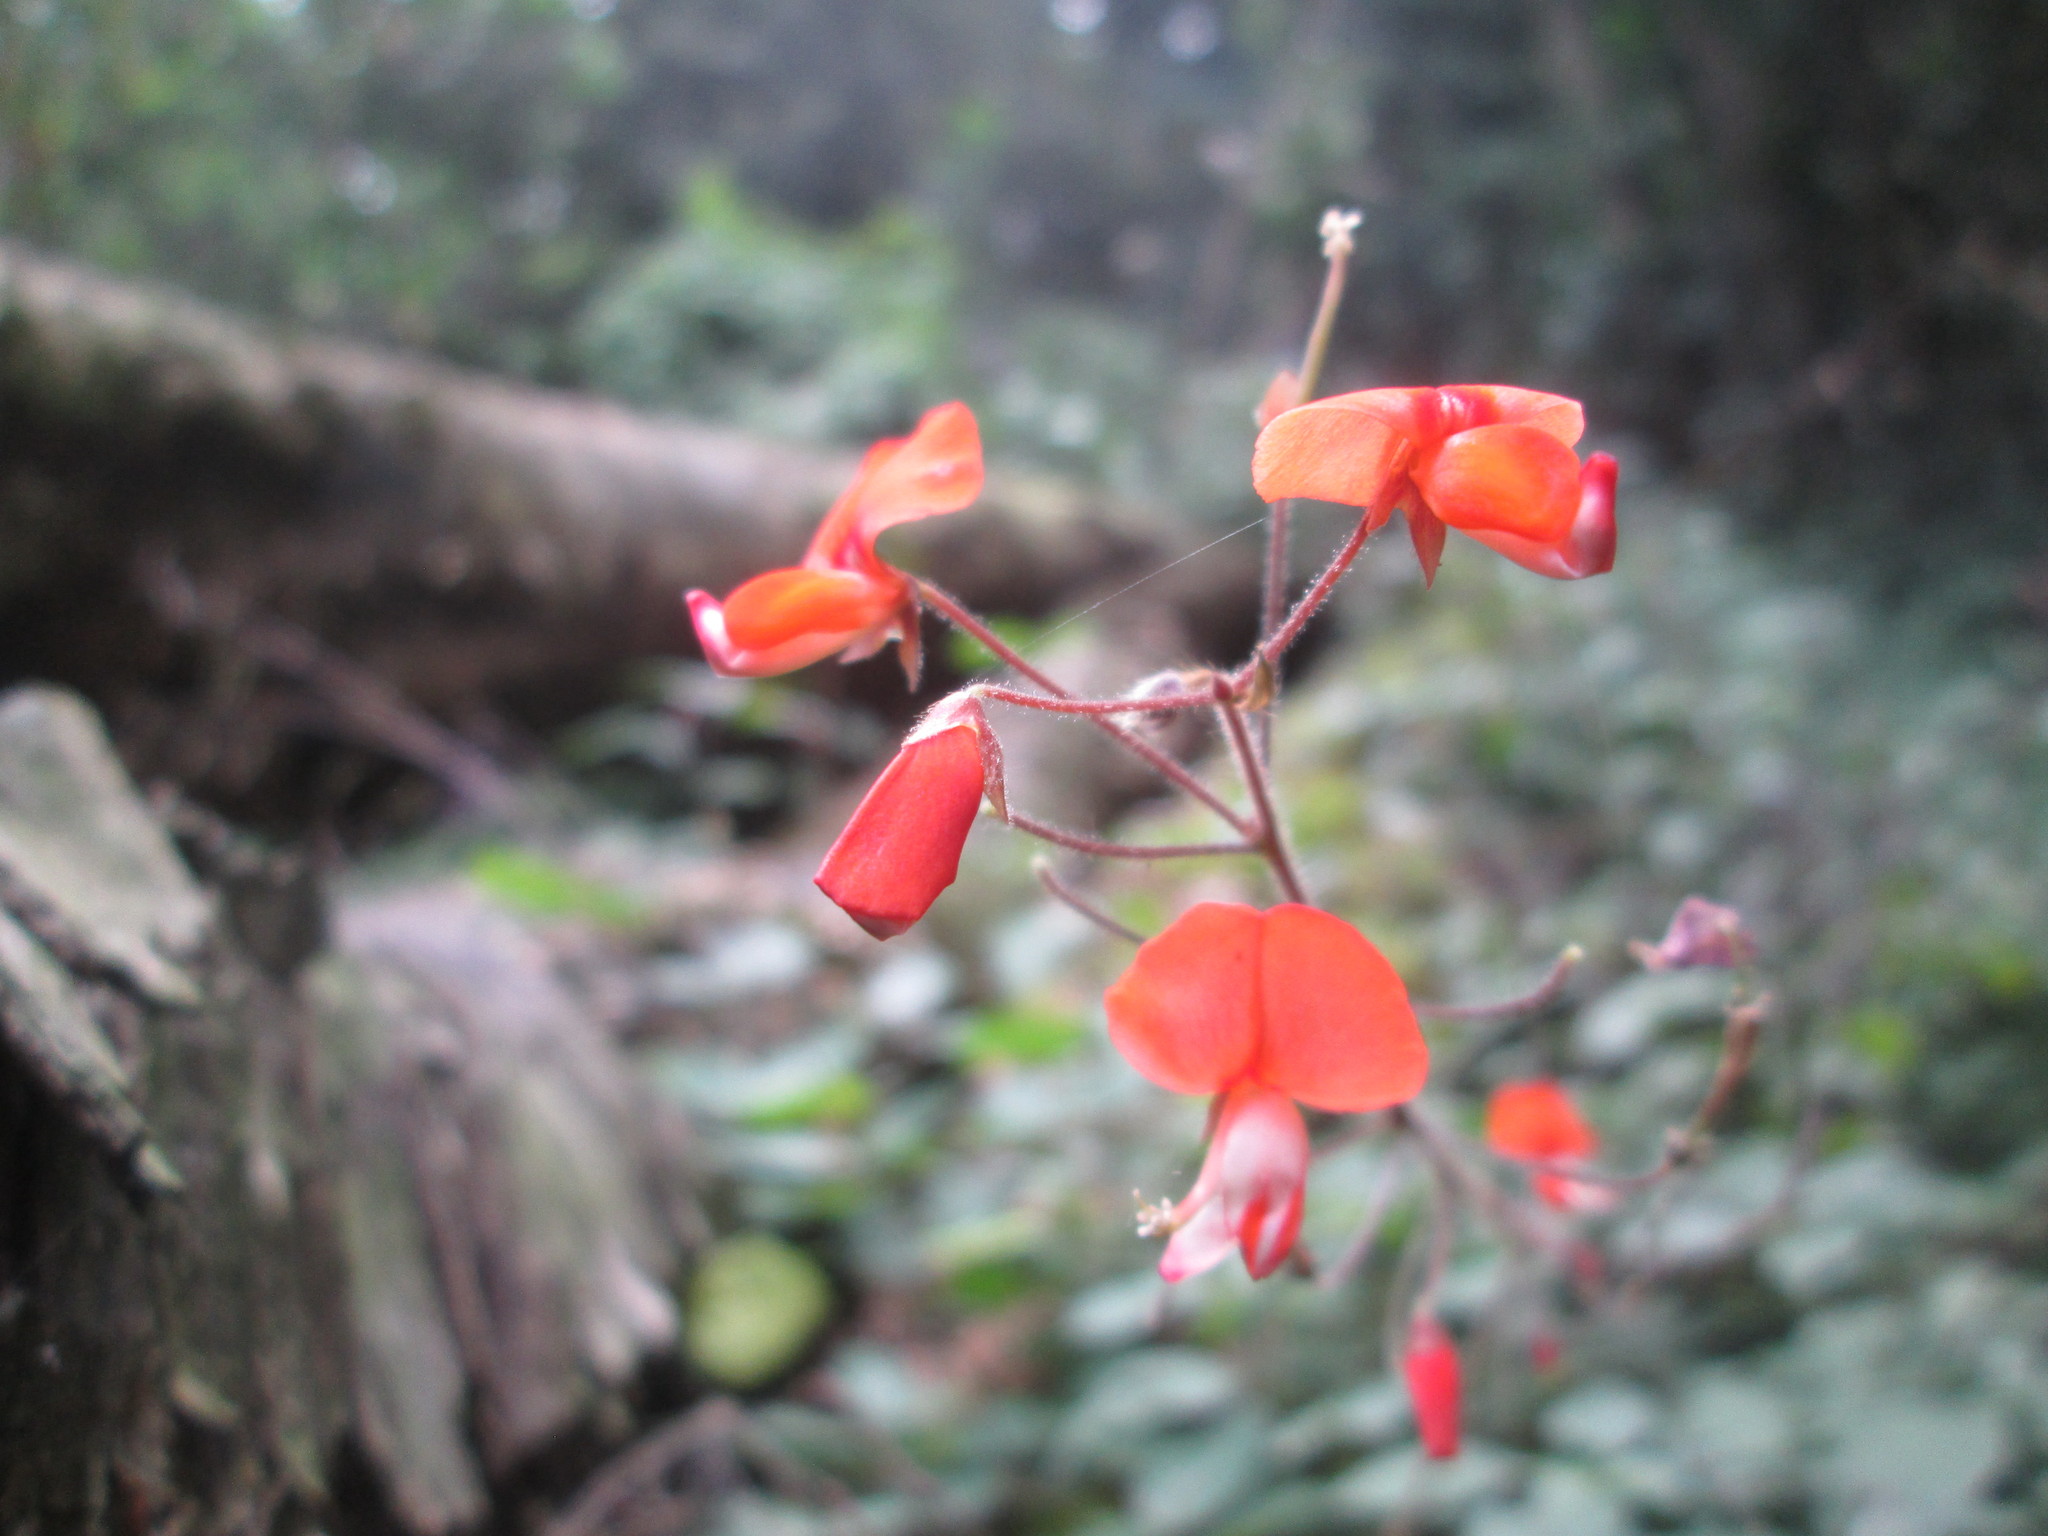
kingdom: Plantae
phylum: Tracheophyta
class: Magnoliopsida
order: Fabales
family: Fabaceae
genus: Hylodesmum
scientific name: Hylodesmum repandum
